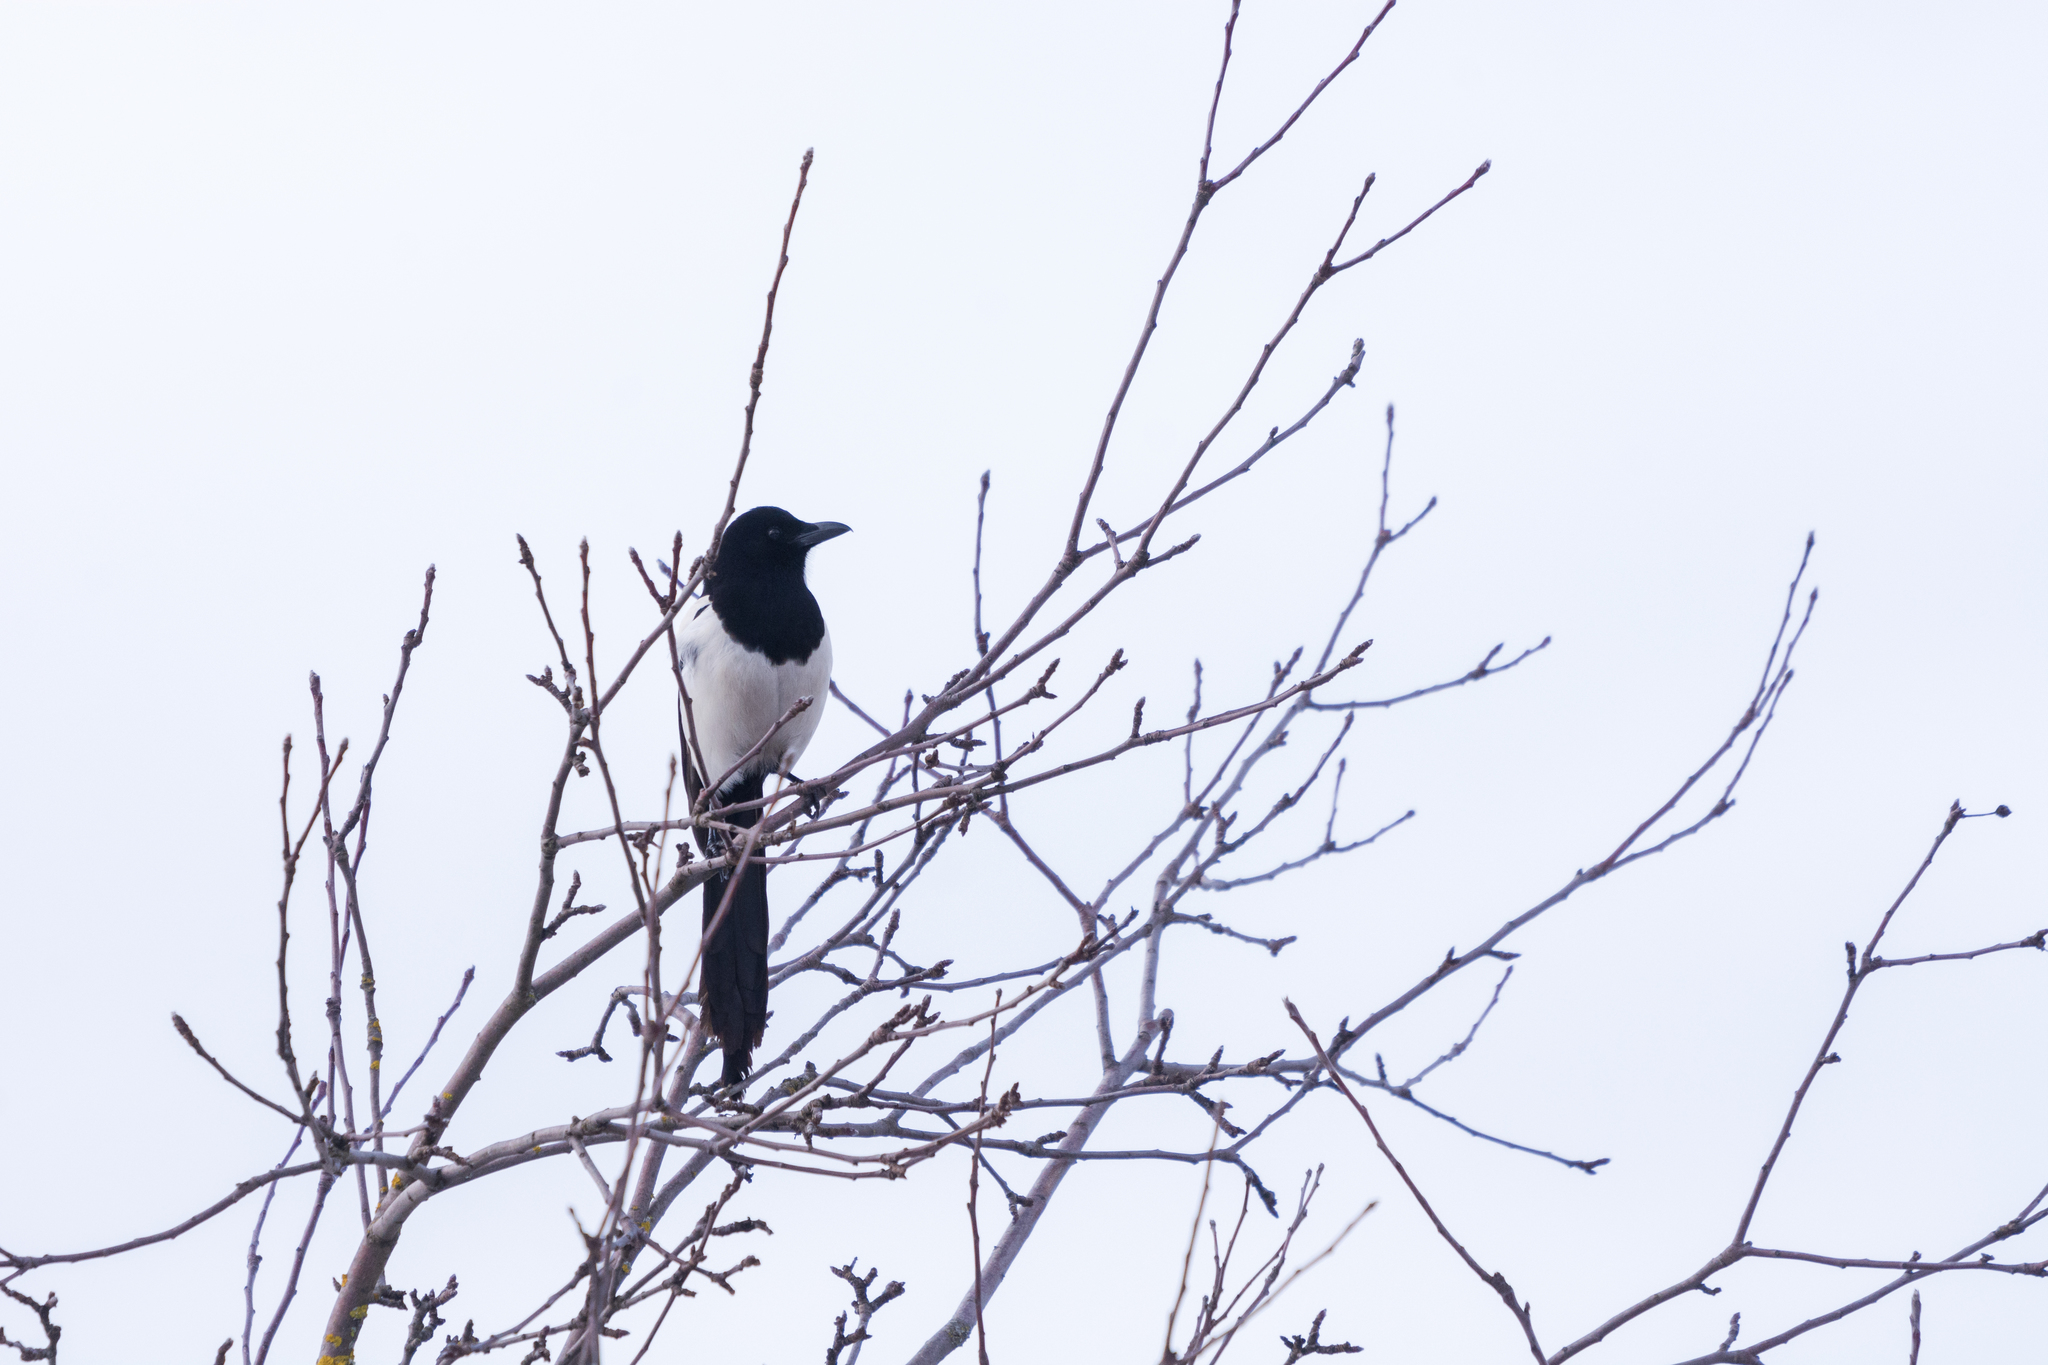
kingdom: Animalia
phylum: Chordata
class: Aves
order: Passeriformes
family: Corvidae
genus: Pica
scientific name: Pica pica
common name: Eurasian magpie
